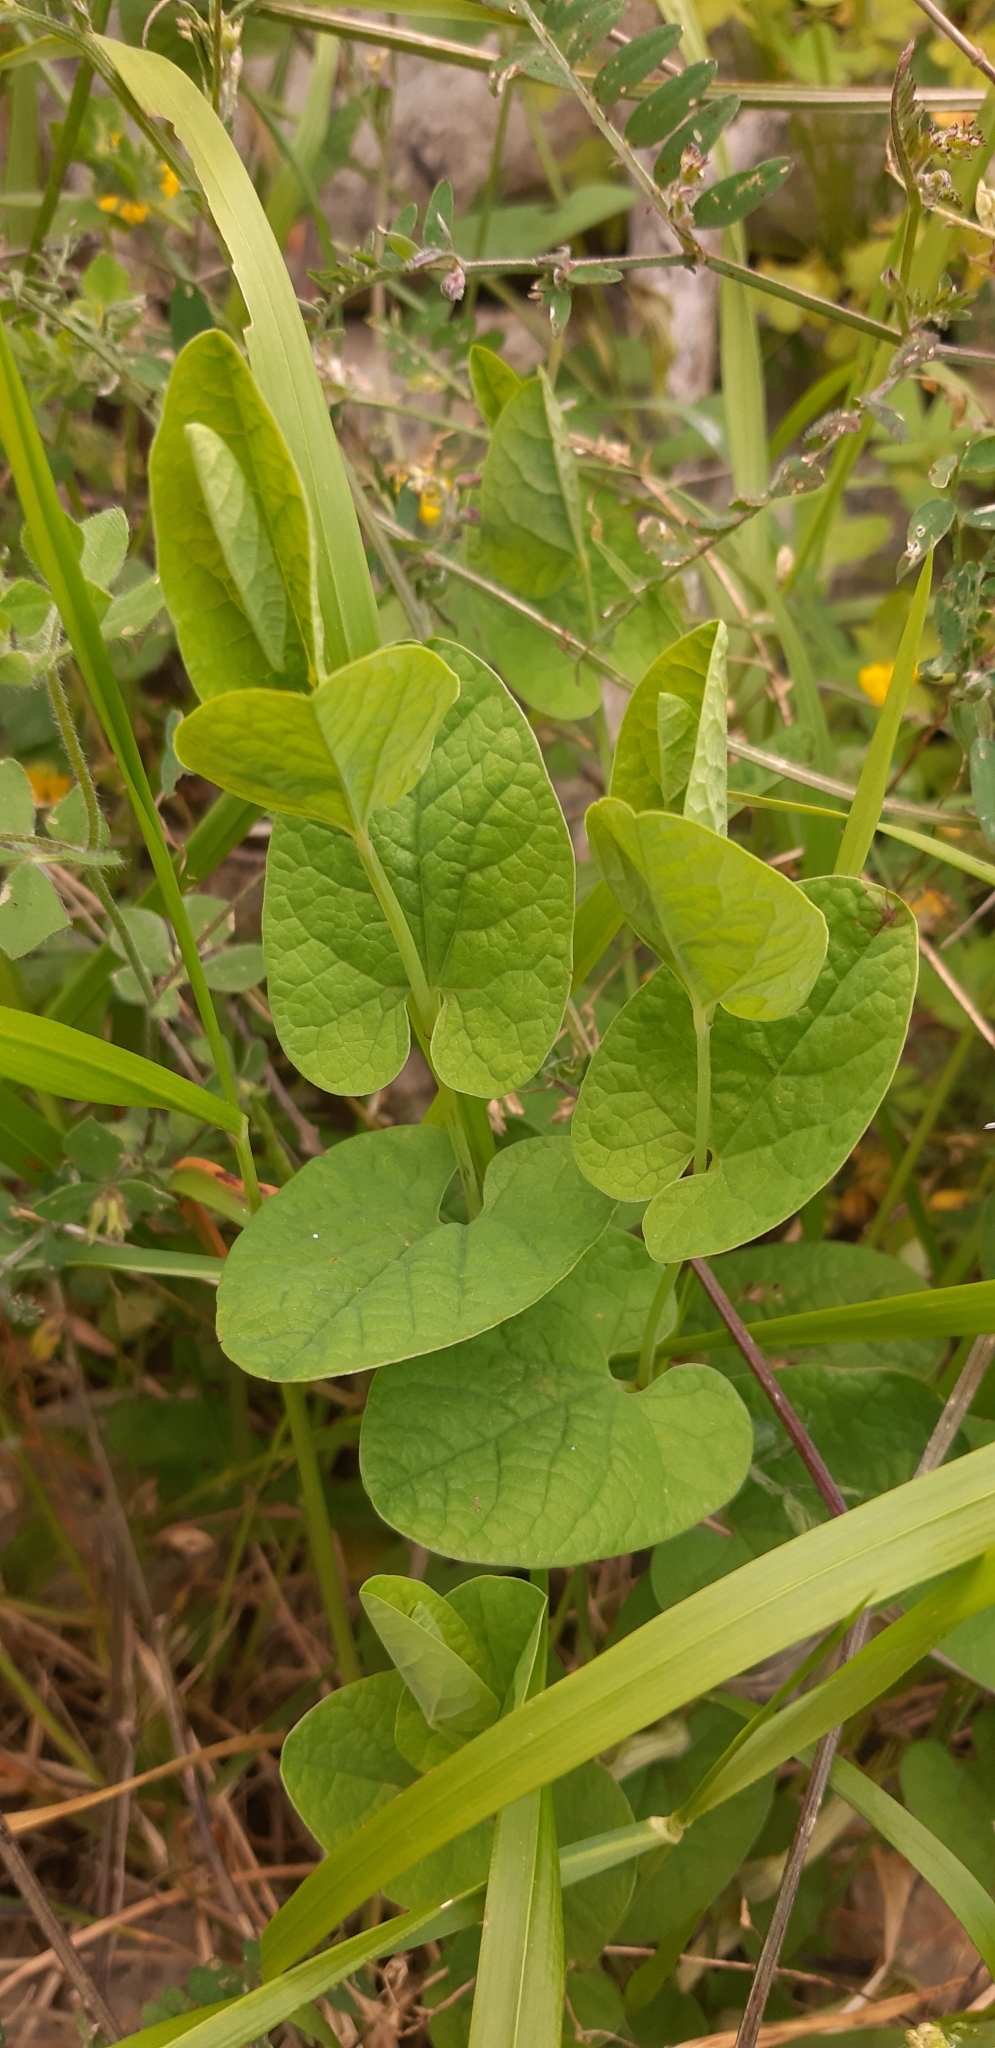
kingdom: Plantae
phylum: Tracheophyta
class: Magnoliopsida
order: Piperales
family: Aristolochiaceae
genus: Aristolochia
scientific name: Aristolochia clusii
